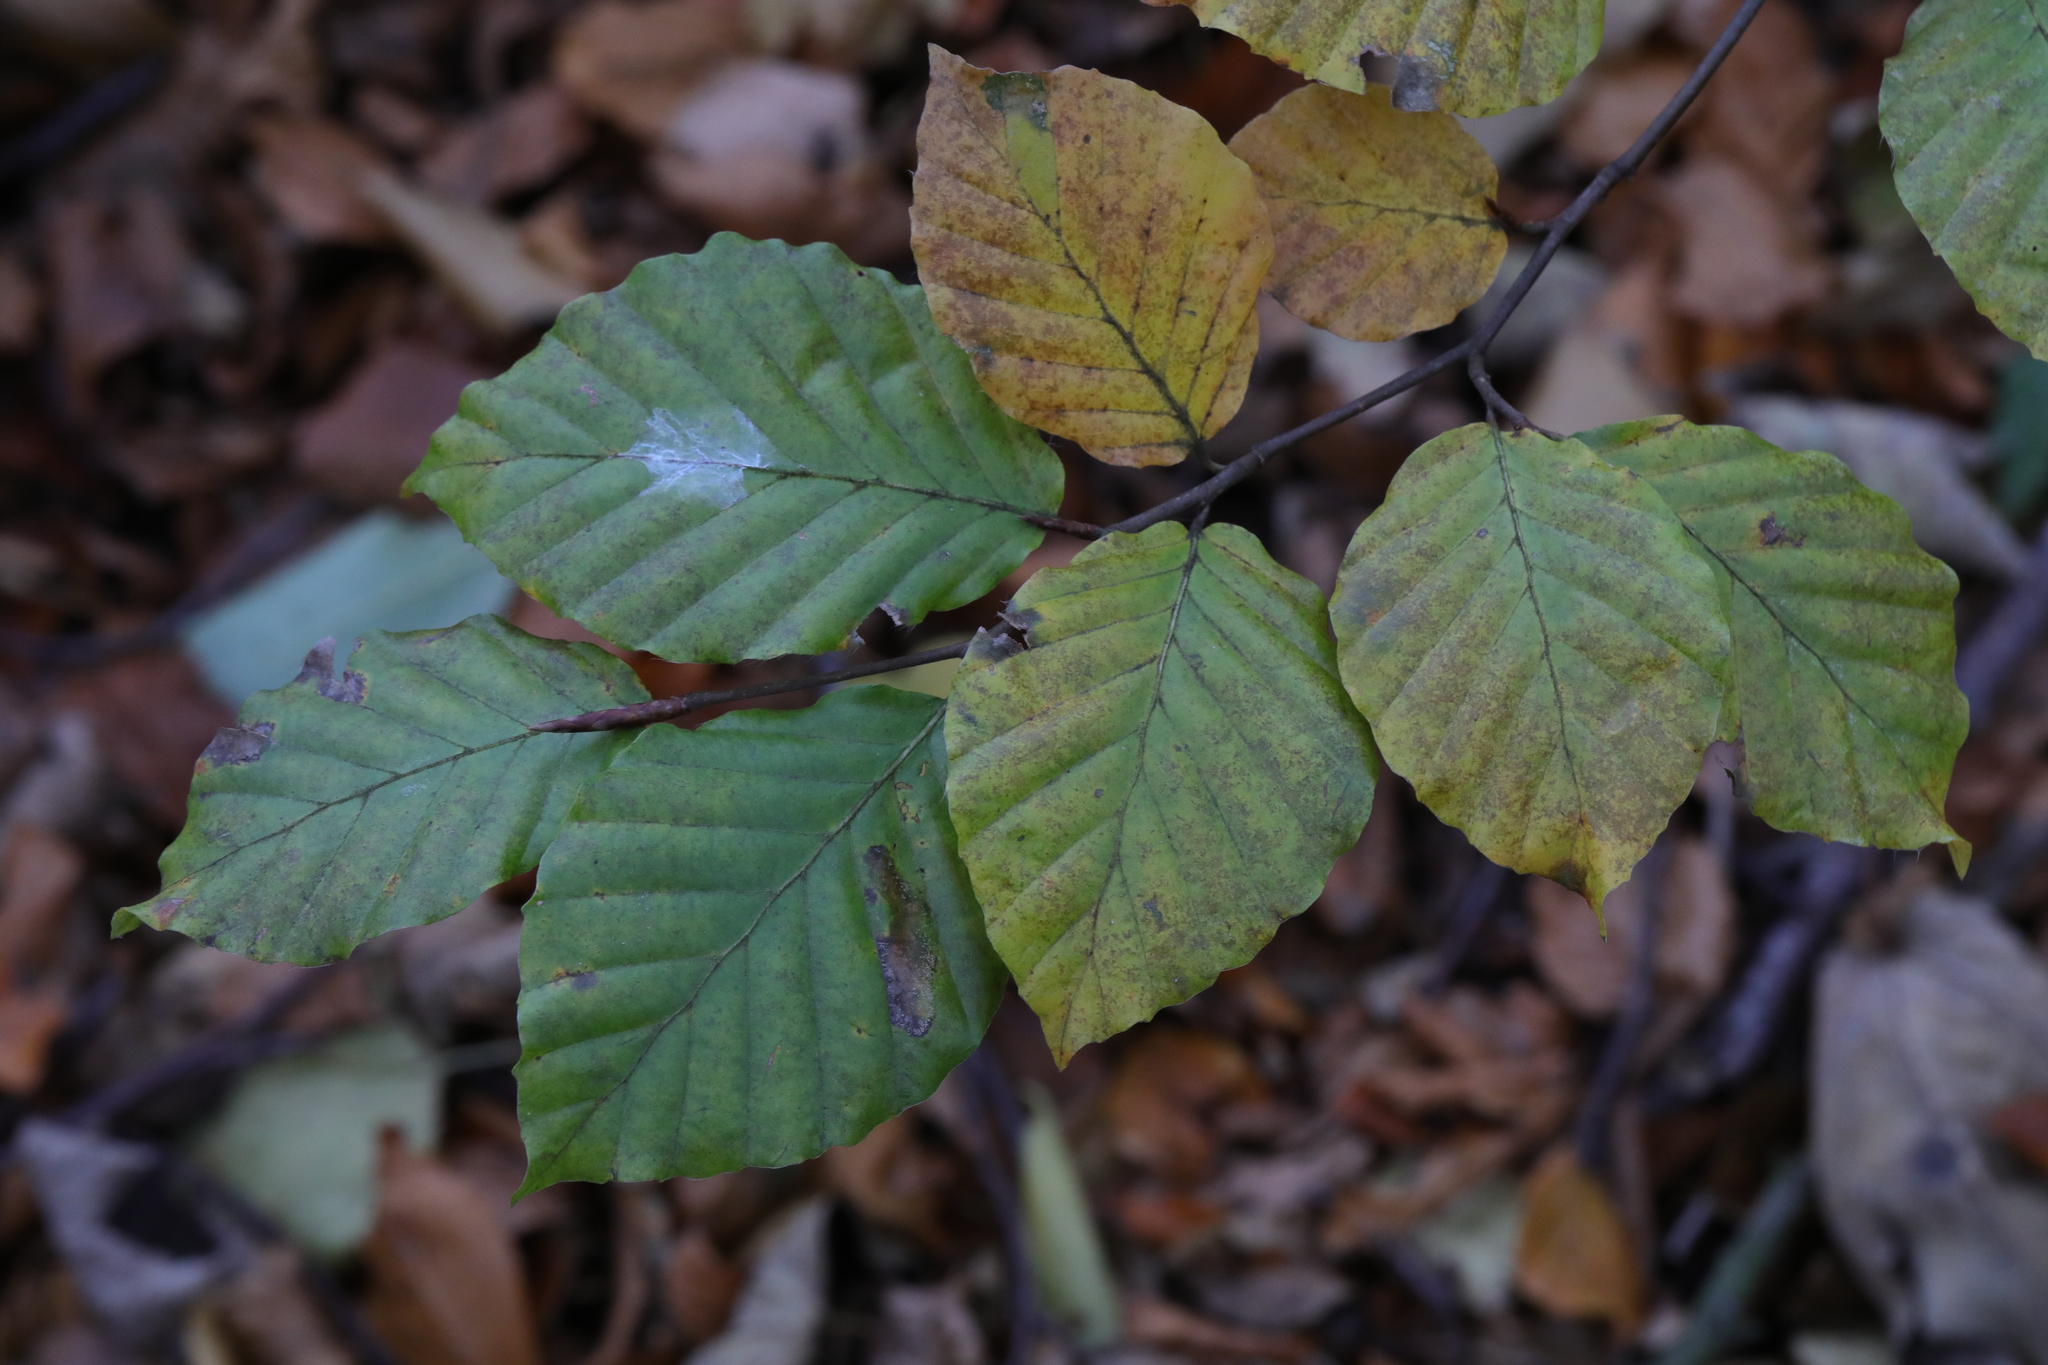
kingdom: Plantae
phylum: Tracheophyta
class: Magnoliopsida
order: Fagales
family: Fagaceae
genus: Fagus
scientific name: Fagus sylvatica
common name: Beech
